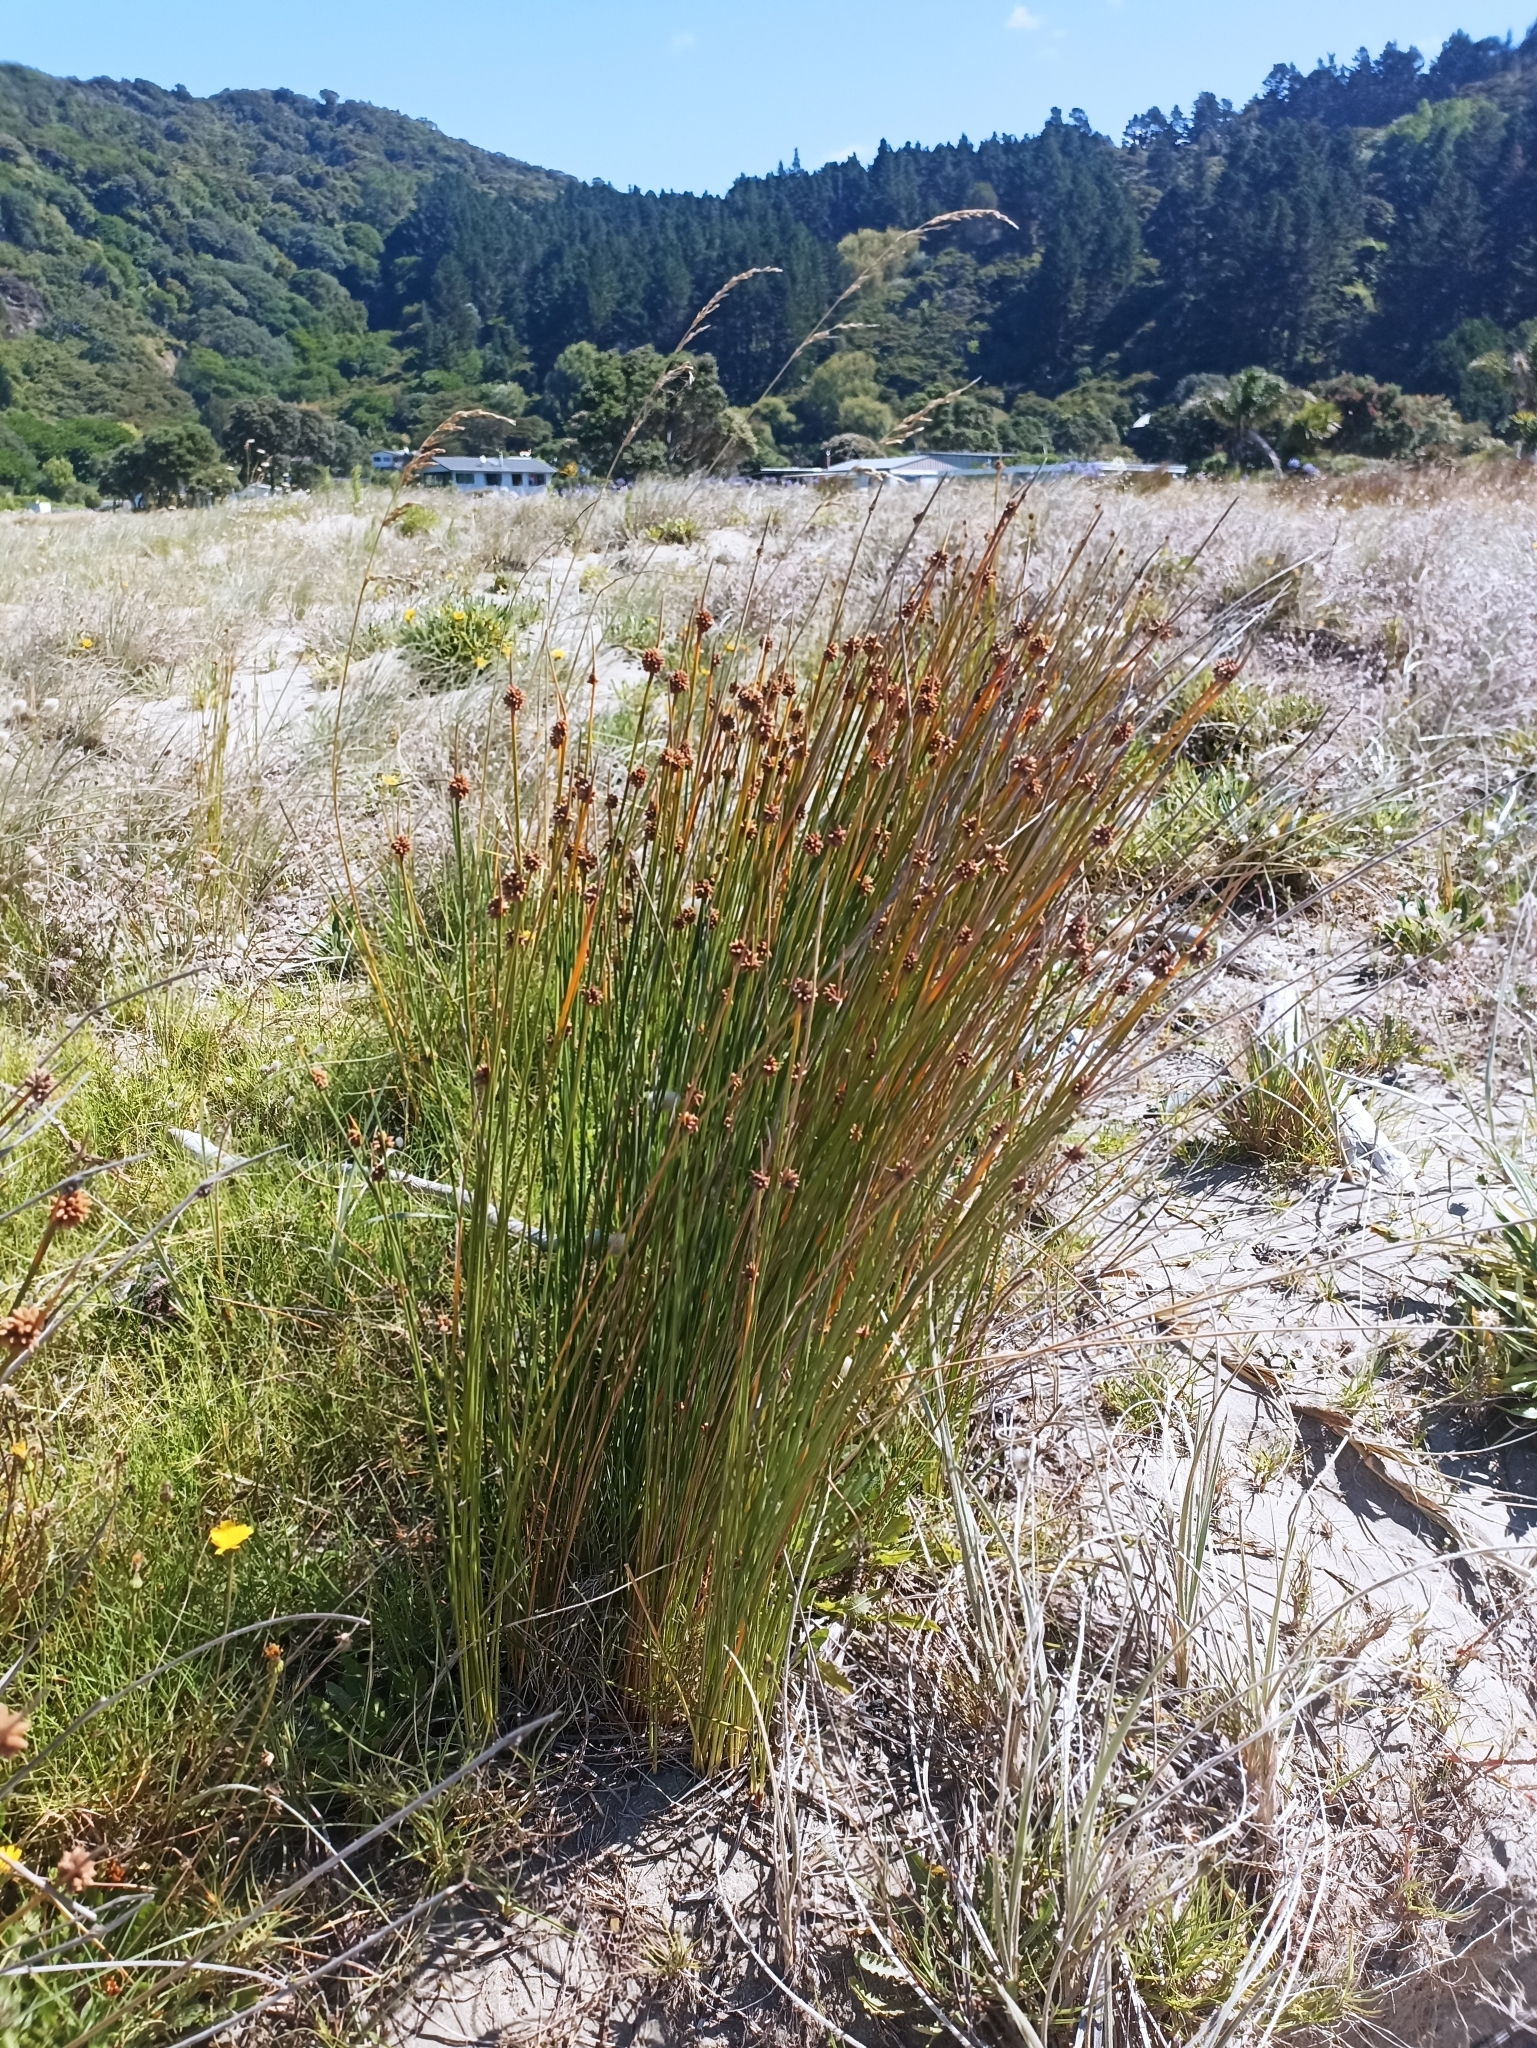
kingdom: Plantae
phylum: Tracheophyta
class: Liliopsida
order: Poales
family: Cyperaceae
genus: Ficinia
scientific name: Ficinia nodosa
